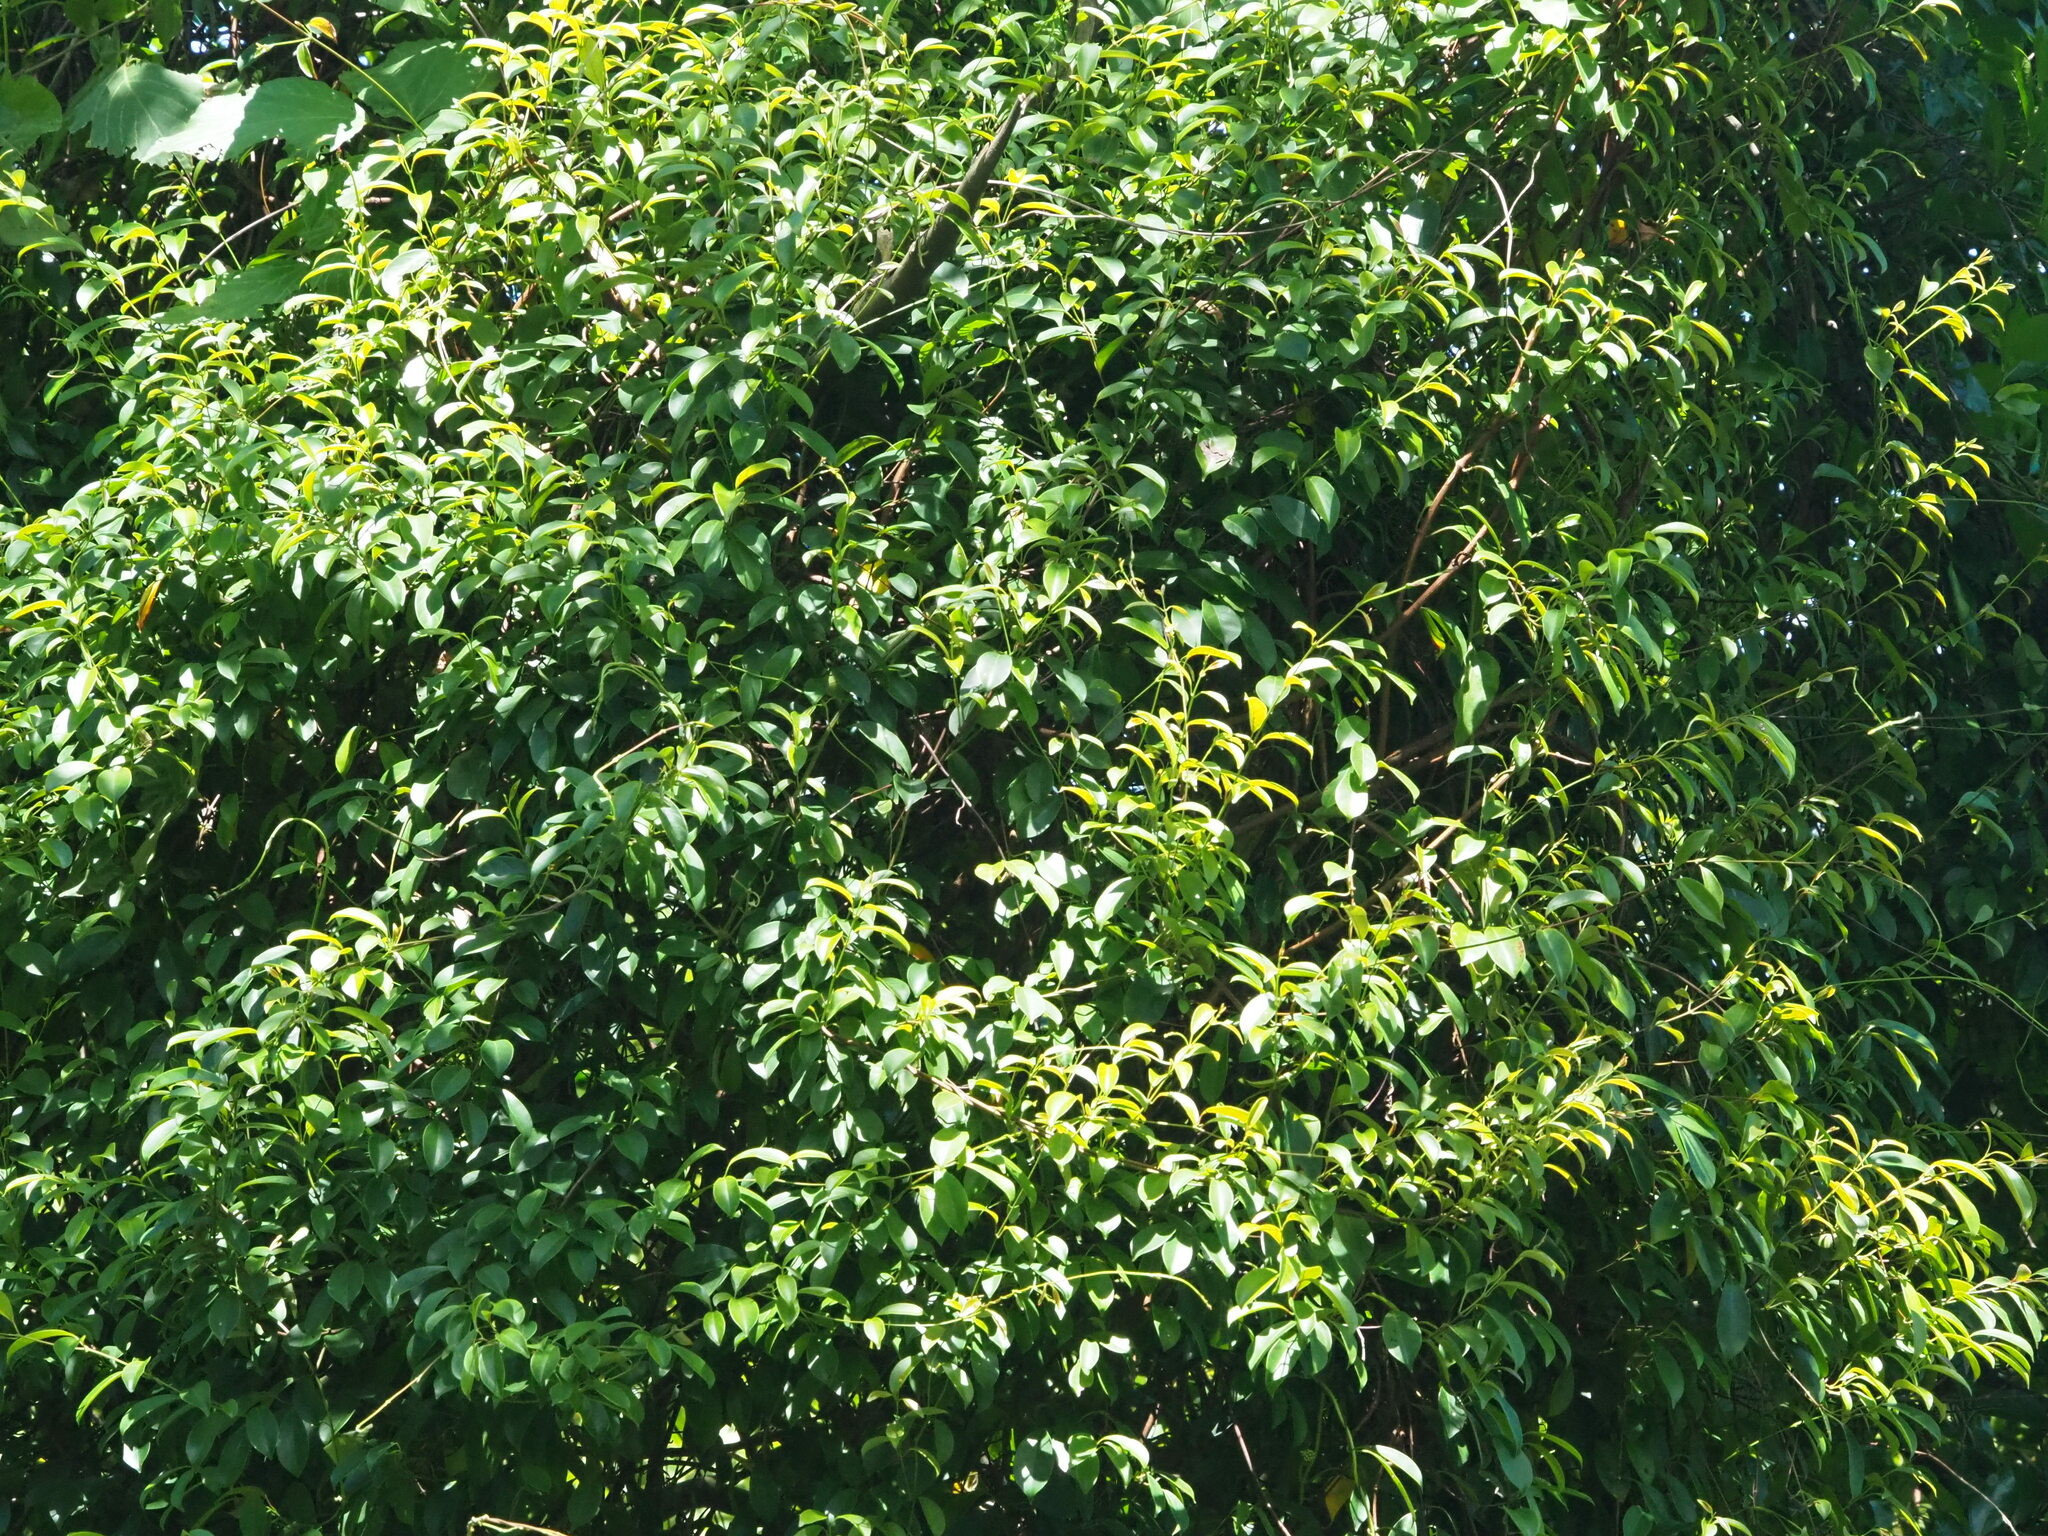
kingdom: Plantae
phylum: Tracheophyta
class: Magnoliopsida
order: Gentianales
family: Apocynaceae
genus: Urceola
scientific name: Urceola rosea
